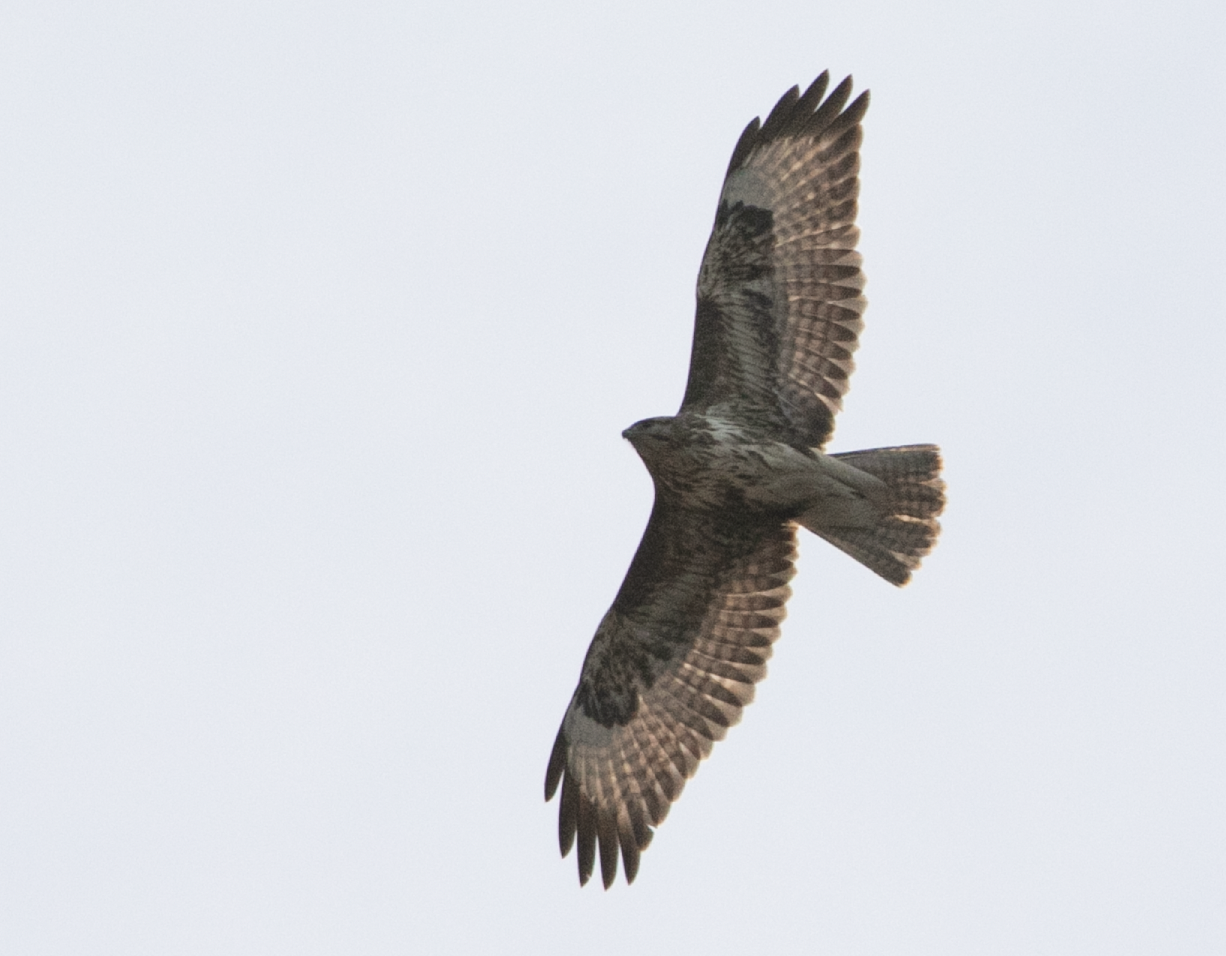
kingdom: Animalia
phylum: Chordata
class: Aves
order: Accipitriformes
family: Accipitridae
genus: Buteo
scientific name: Buteo buteo
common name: Common buzzard
